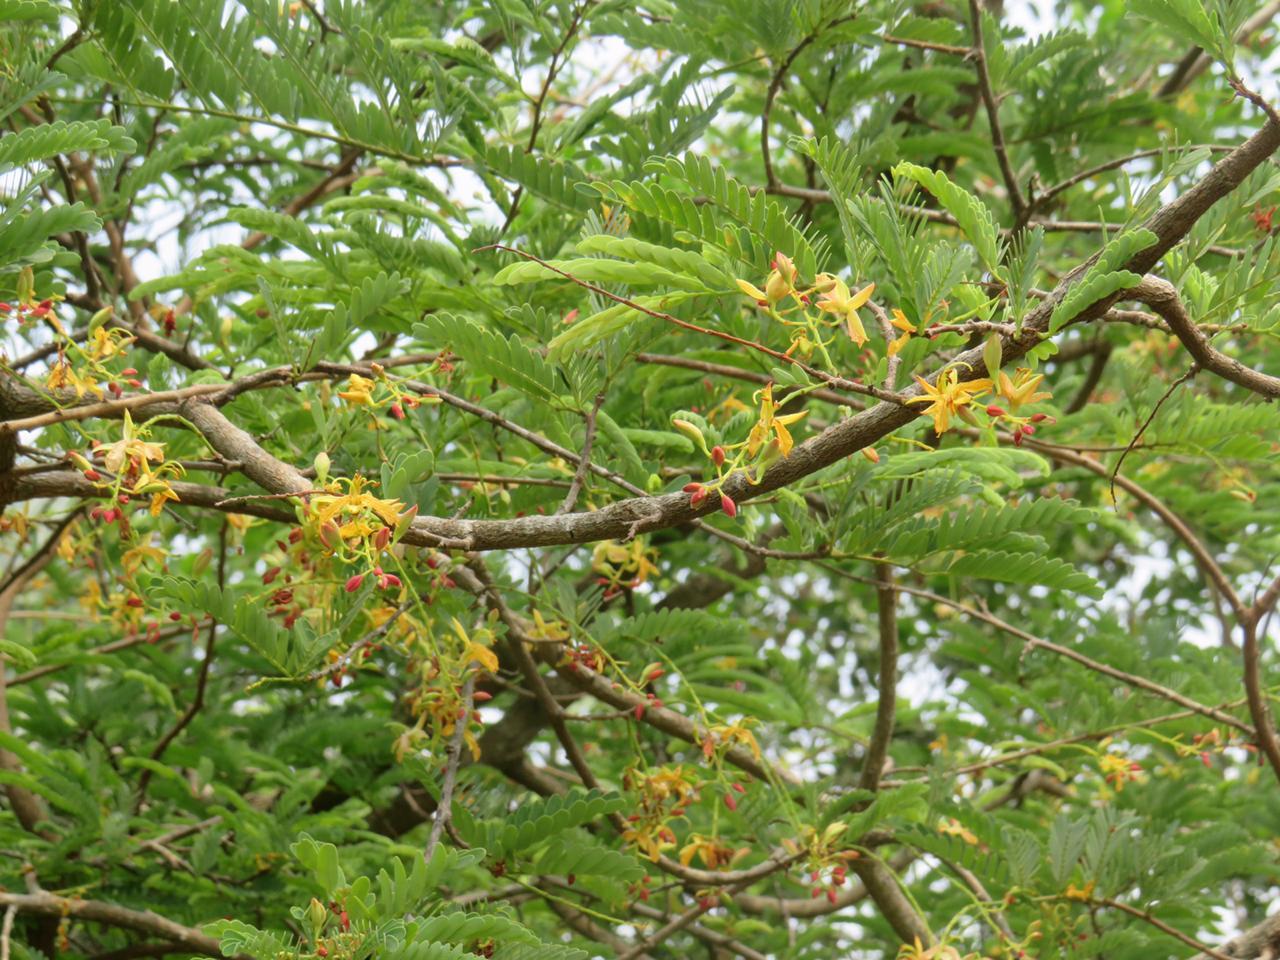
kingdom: Plantae
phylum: Tracheophyta
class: Magnoliopsida
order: Fabales
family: Fabaceae
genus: Tamarindus
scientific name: Tamarindus indica
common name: Tamarind
